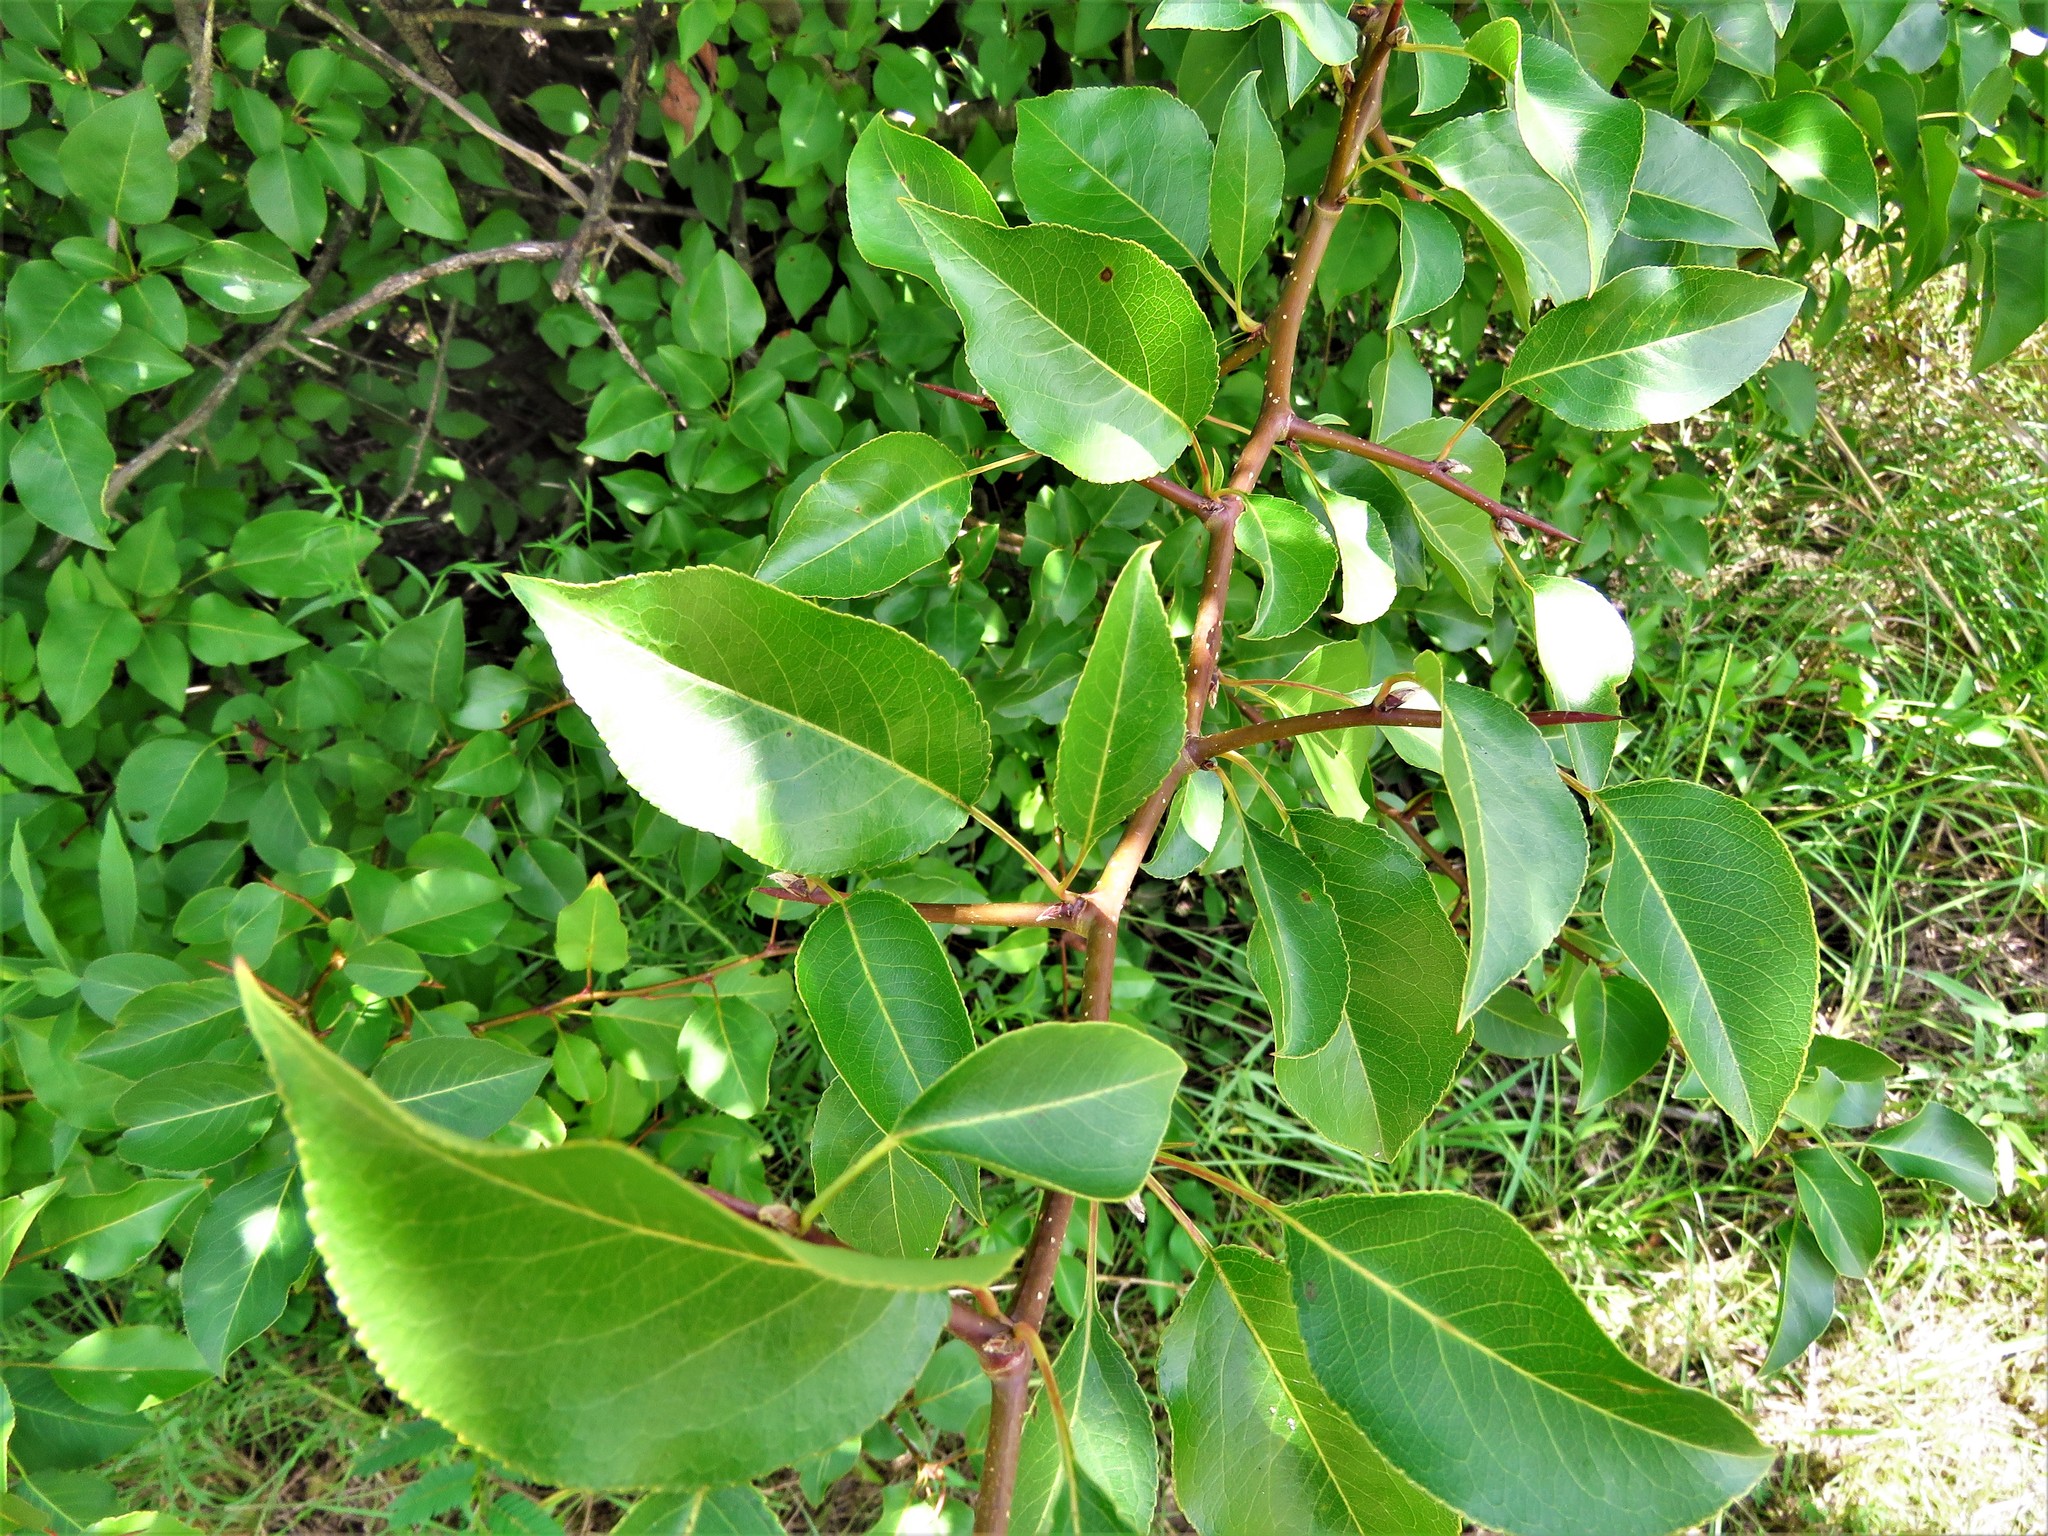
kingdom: Plantae
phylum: Tracheophyta
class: Magnoliopsida
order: Rosales
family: Rosaceae
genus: Pyrus
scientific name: Pyrus calleryana
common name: Callery pear
